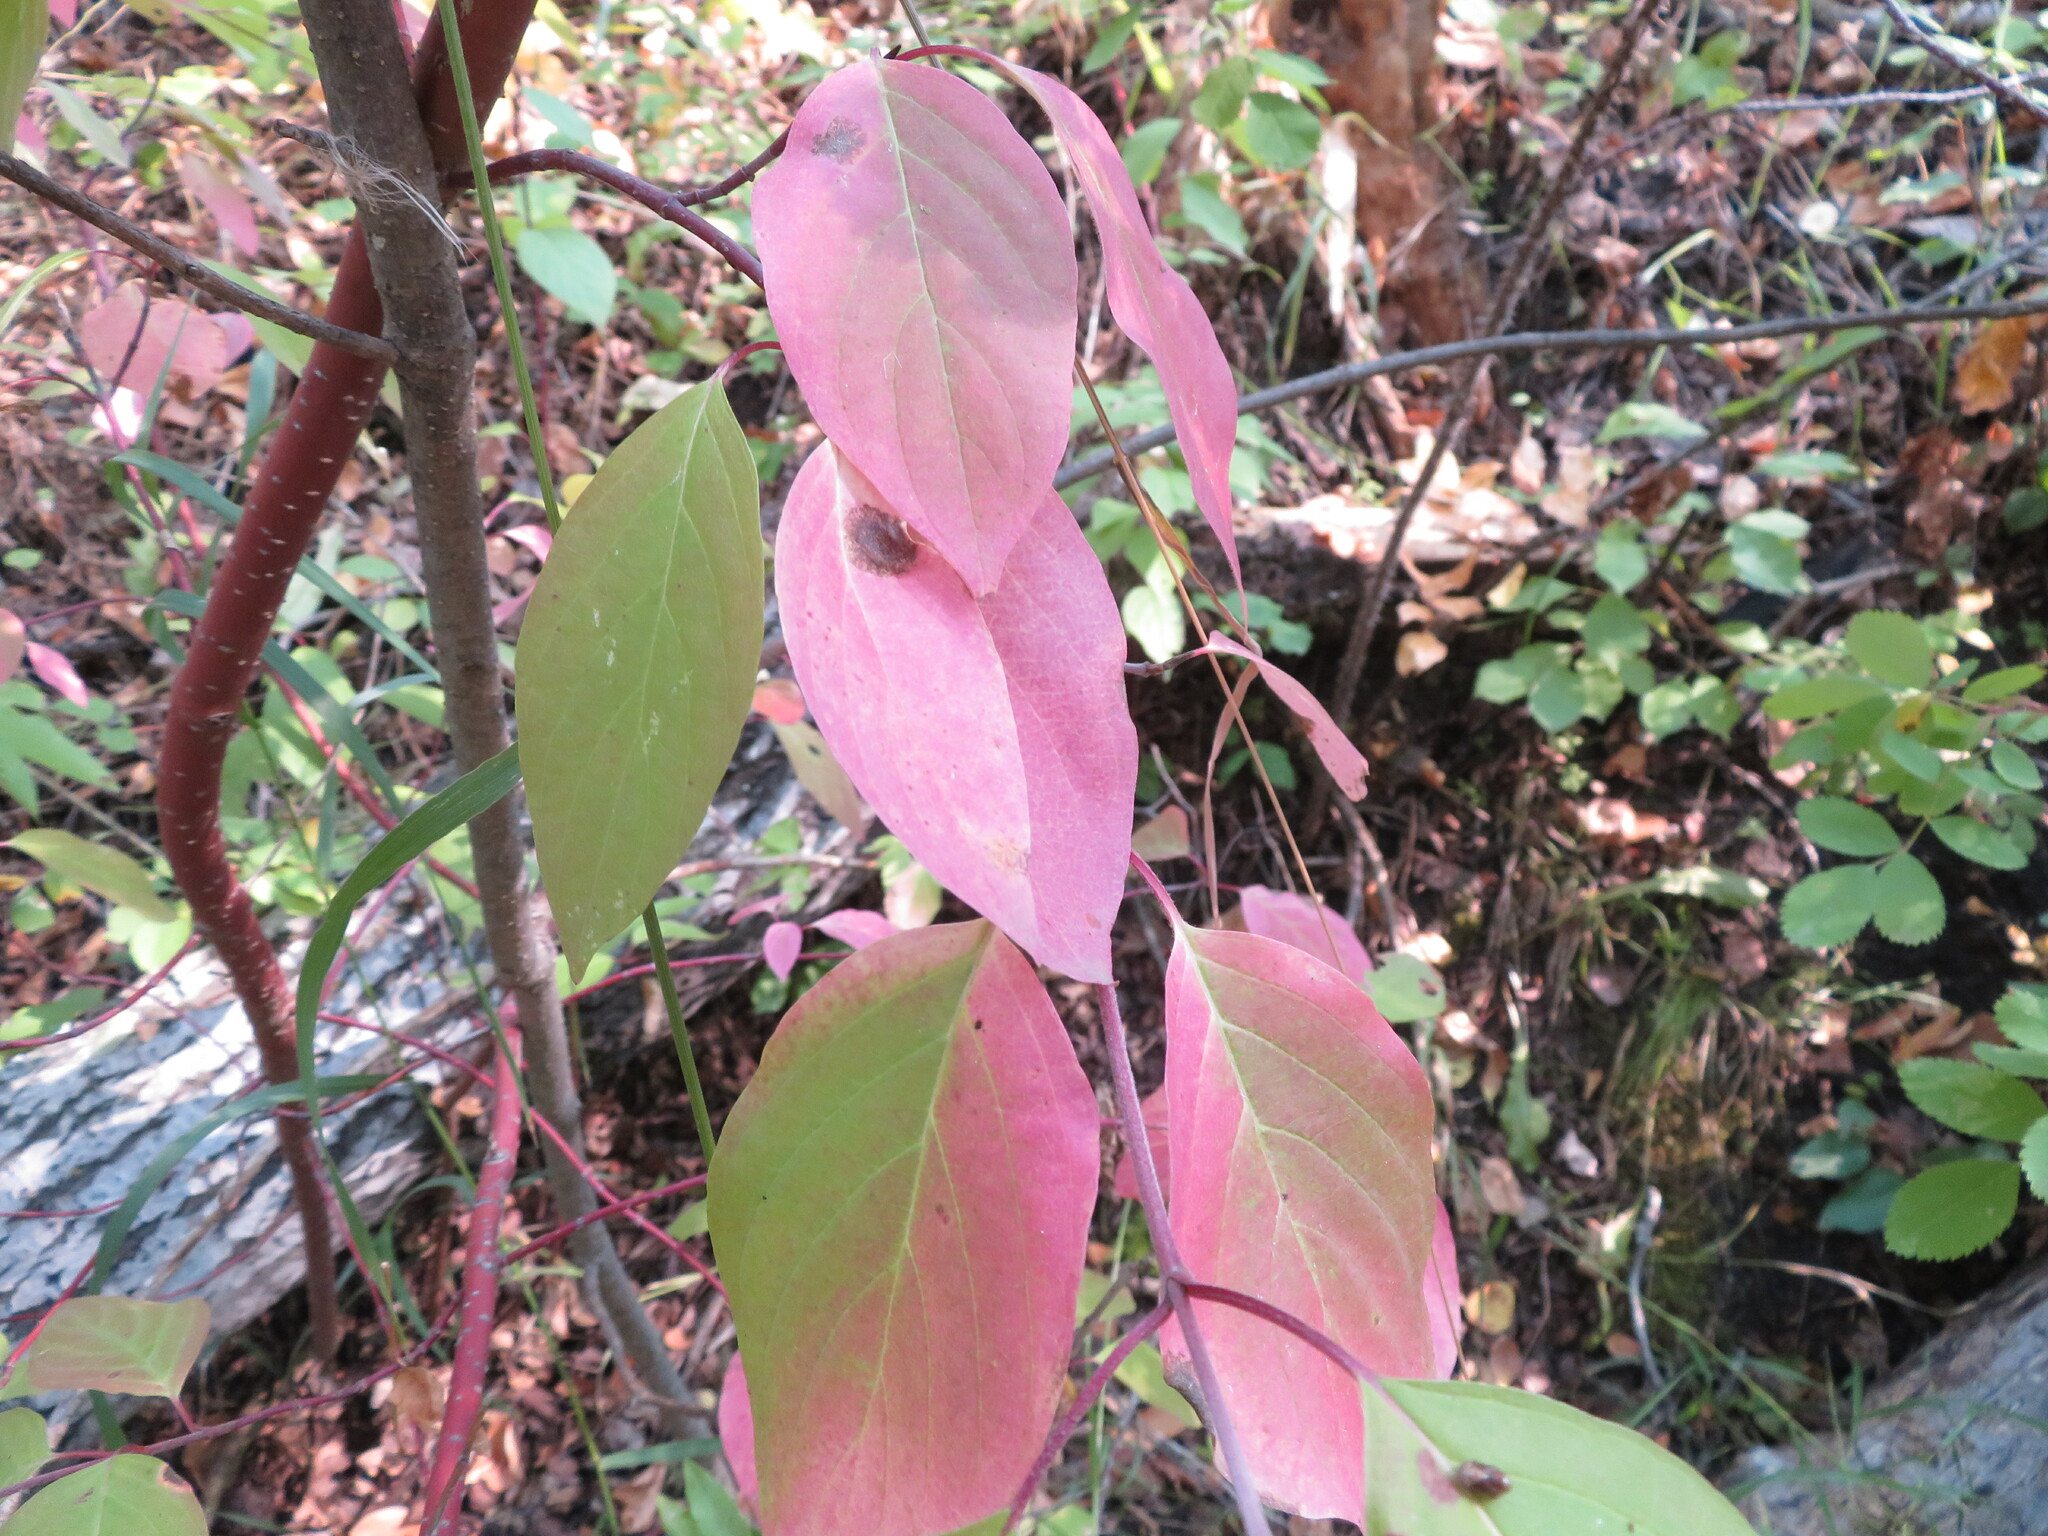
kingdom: Plantae
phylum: Tracheophyta
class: Magnoliopsida
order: Cornales
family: Cornaceae
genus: Cornus
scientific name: Cornus sericea
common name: Red-osier dogwood
